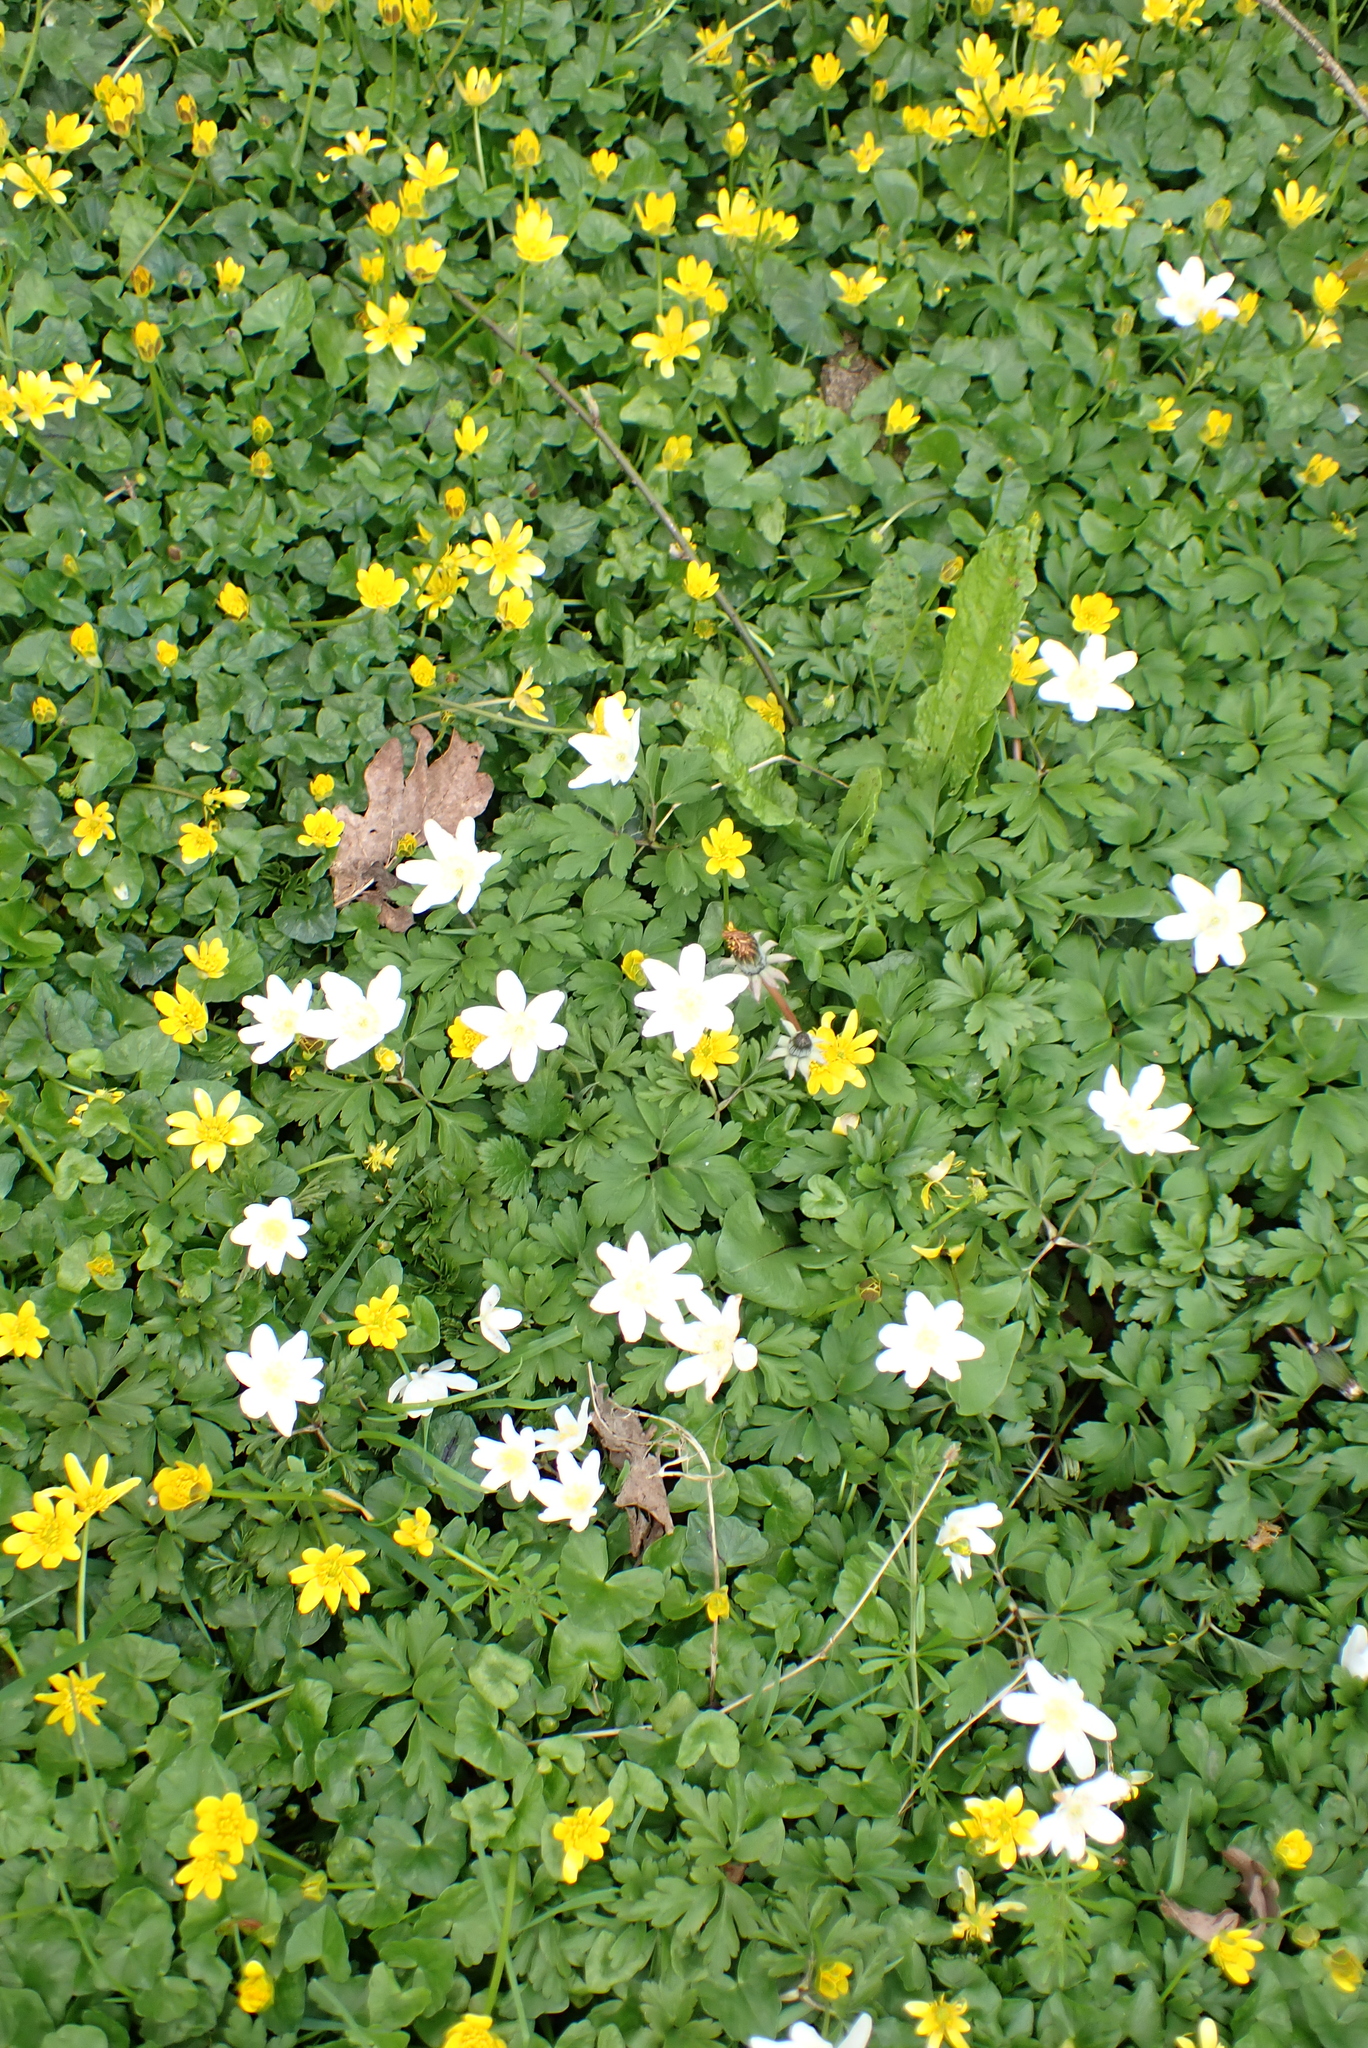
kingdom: Plantae
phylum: Tracheophyta
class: Magnoliopsida
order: Ranunculales
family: Ranunculaceae
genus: Anemone
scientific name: Anemone nemorosa
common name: Wood anemone
